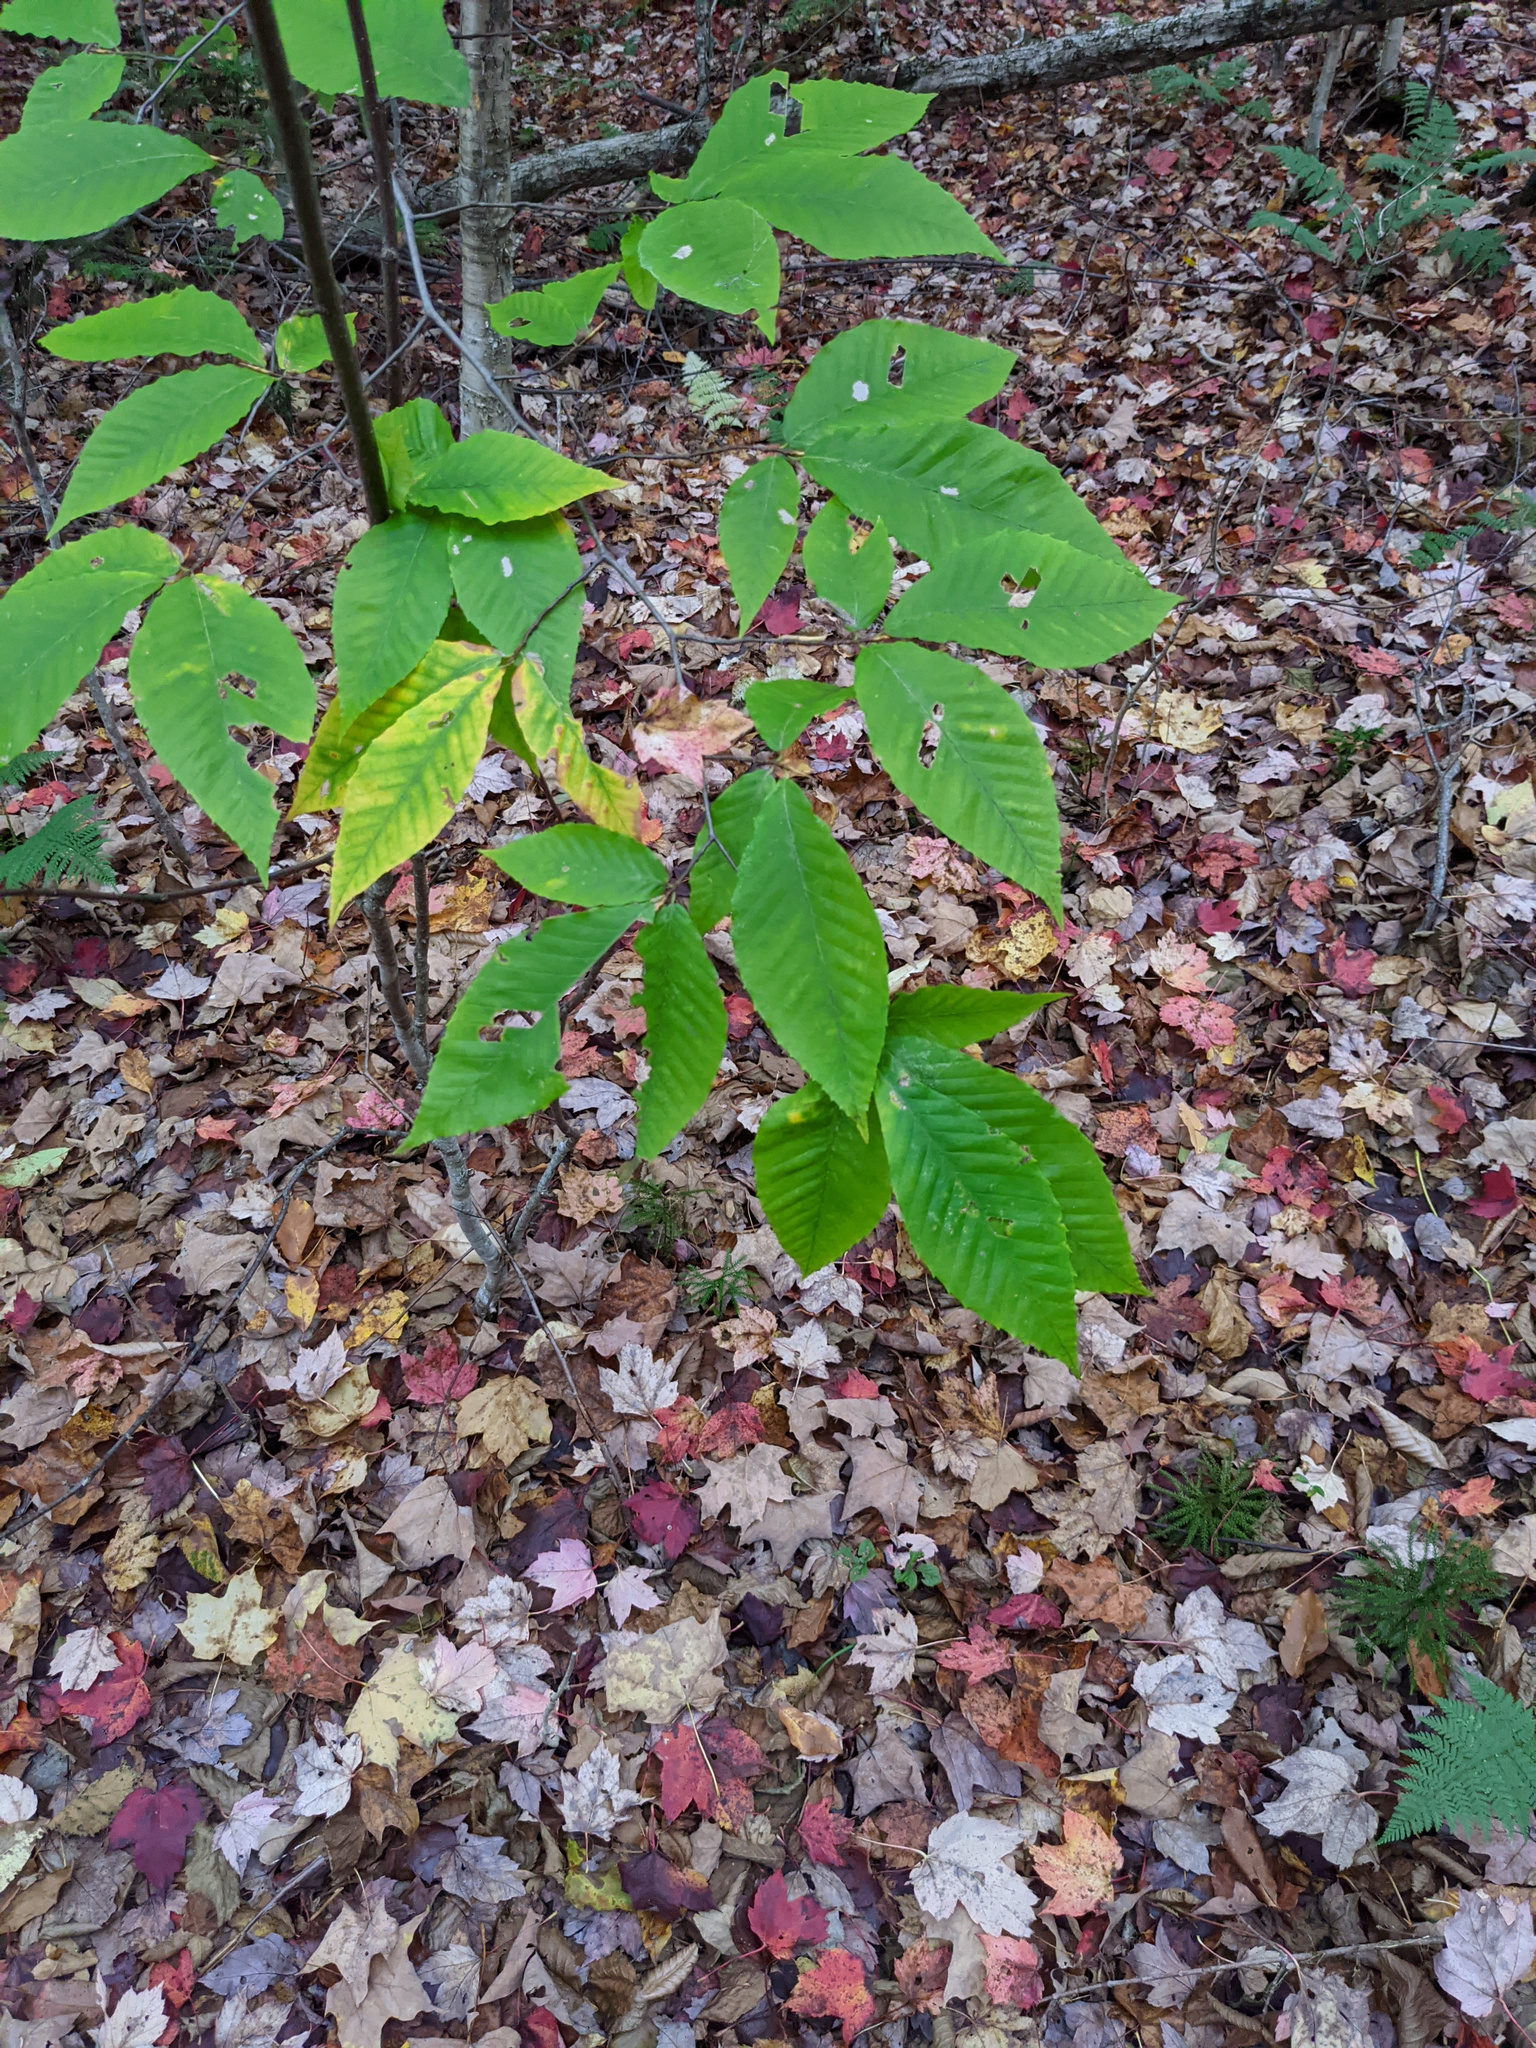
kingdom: Plantae
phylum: Tracheophyta
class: Magnoliopsida
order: Fagales
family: Fagaceae
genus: Fagus
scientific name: Fagus grandifolia
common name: American beech
